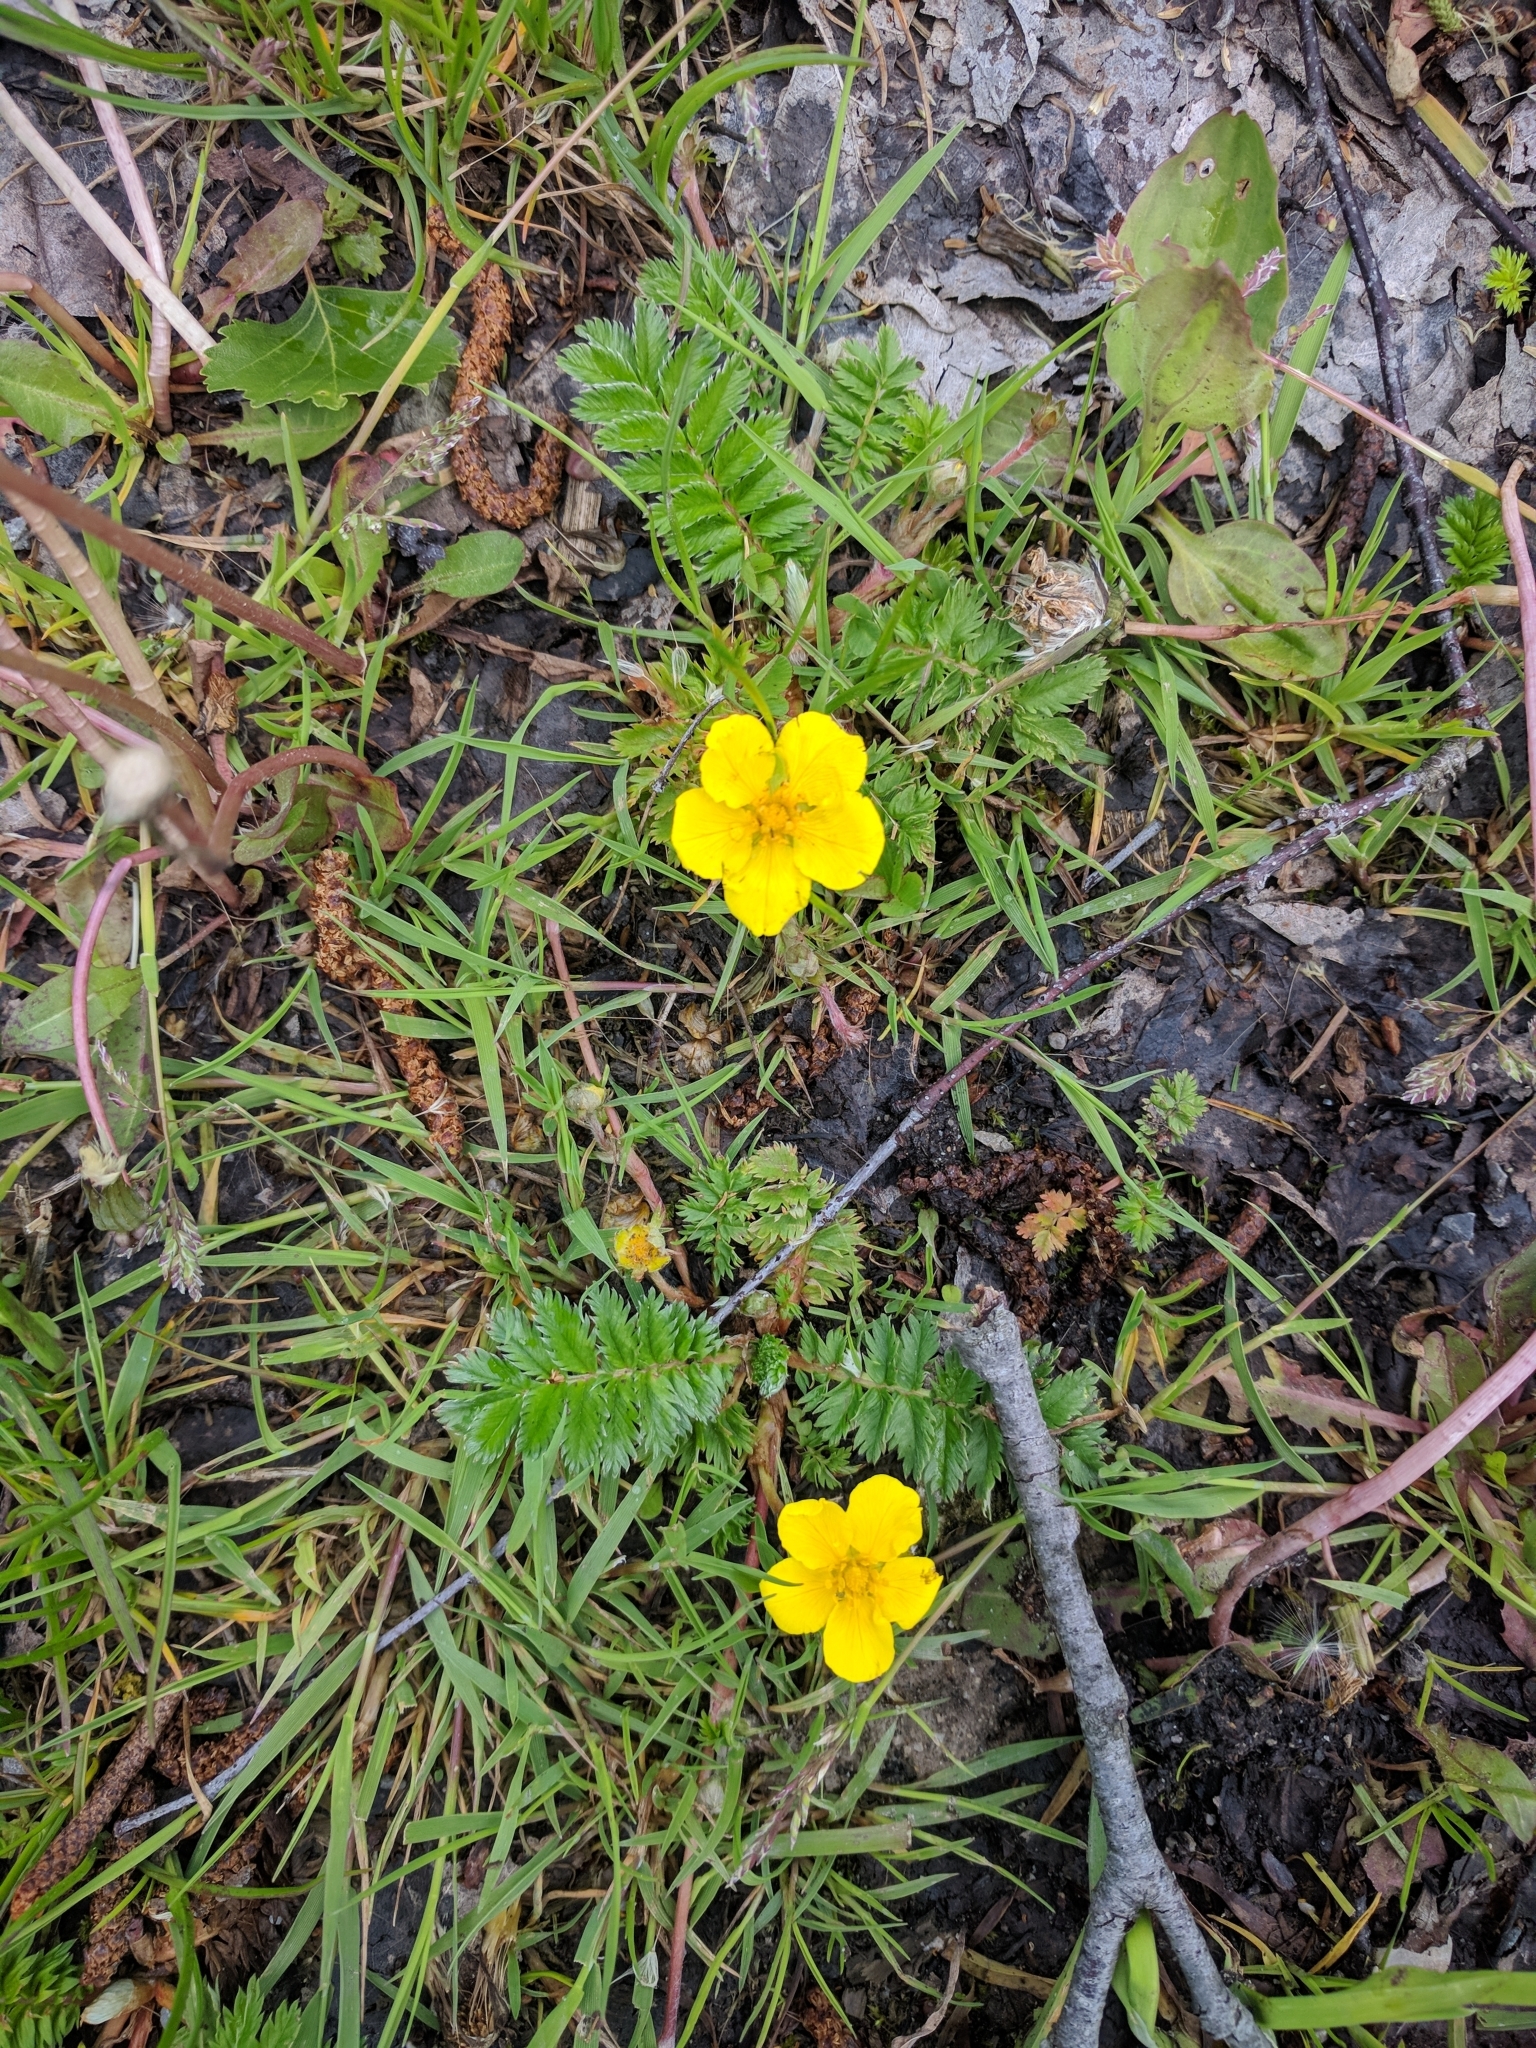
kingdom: Plantae
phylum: Tracheophyta
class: Magnoliopsida
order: Rosales
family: Rosaceae
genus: Argentina
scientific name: Argentina anserina
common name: Common silverweed
